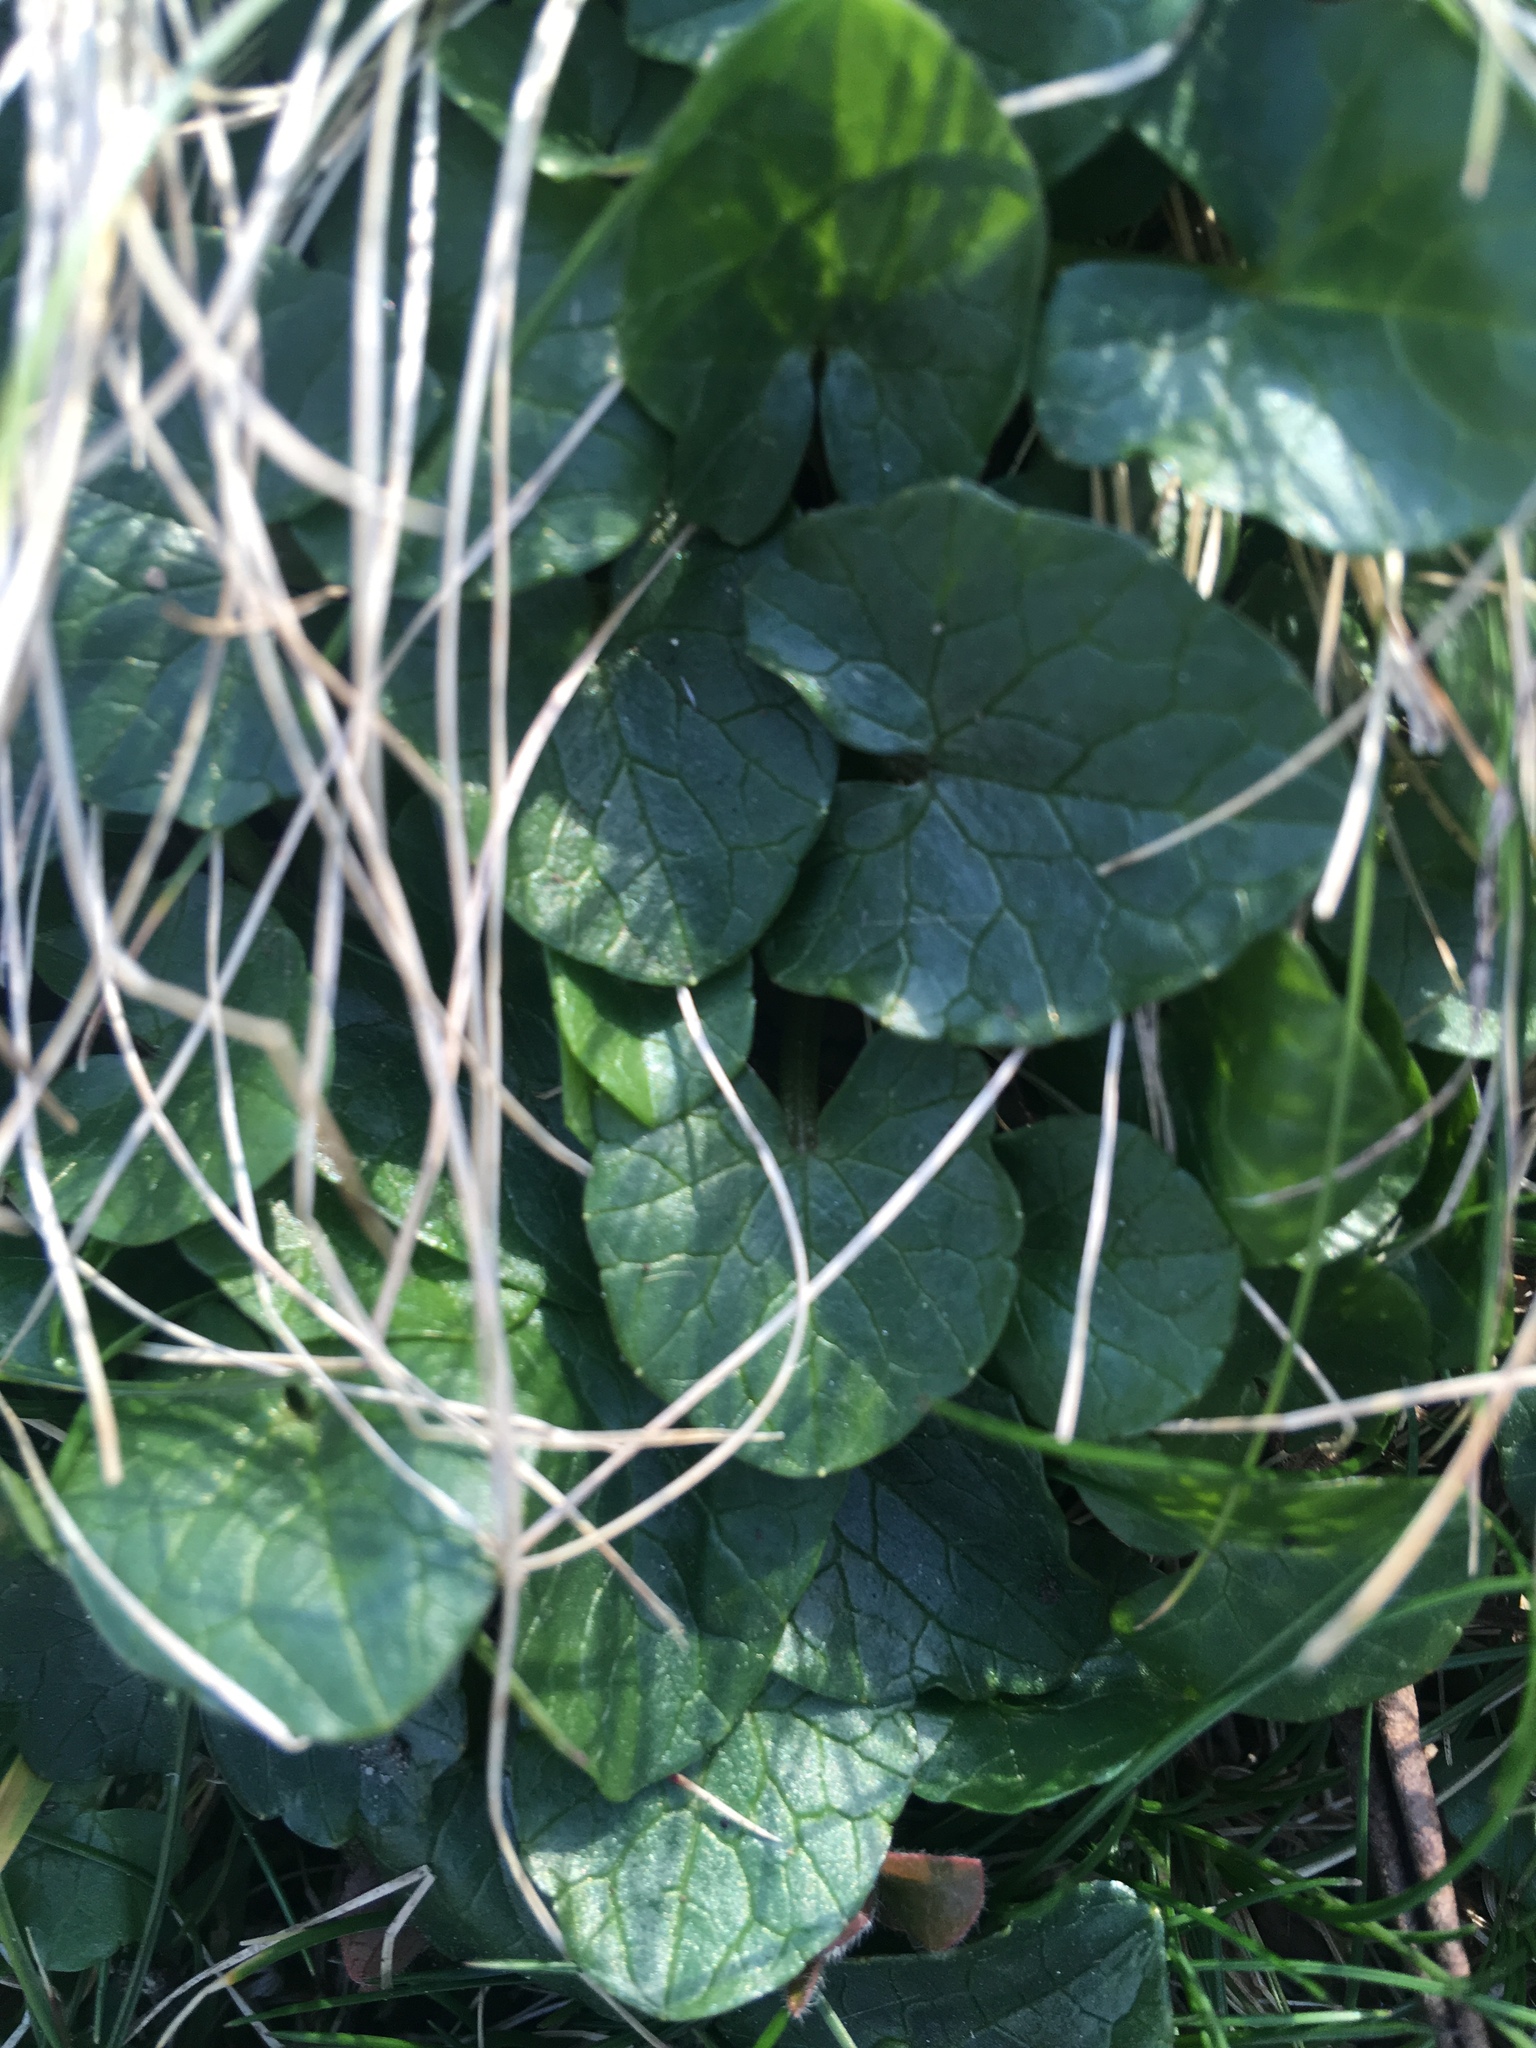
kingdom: Plantae
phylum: Tracheophyta
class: Magnoliopsida
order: Ranunculales
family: Ranunculaceae
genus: Ficaria
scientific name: Ficaria verna
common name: Lesser celandine
